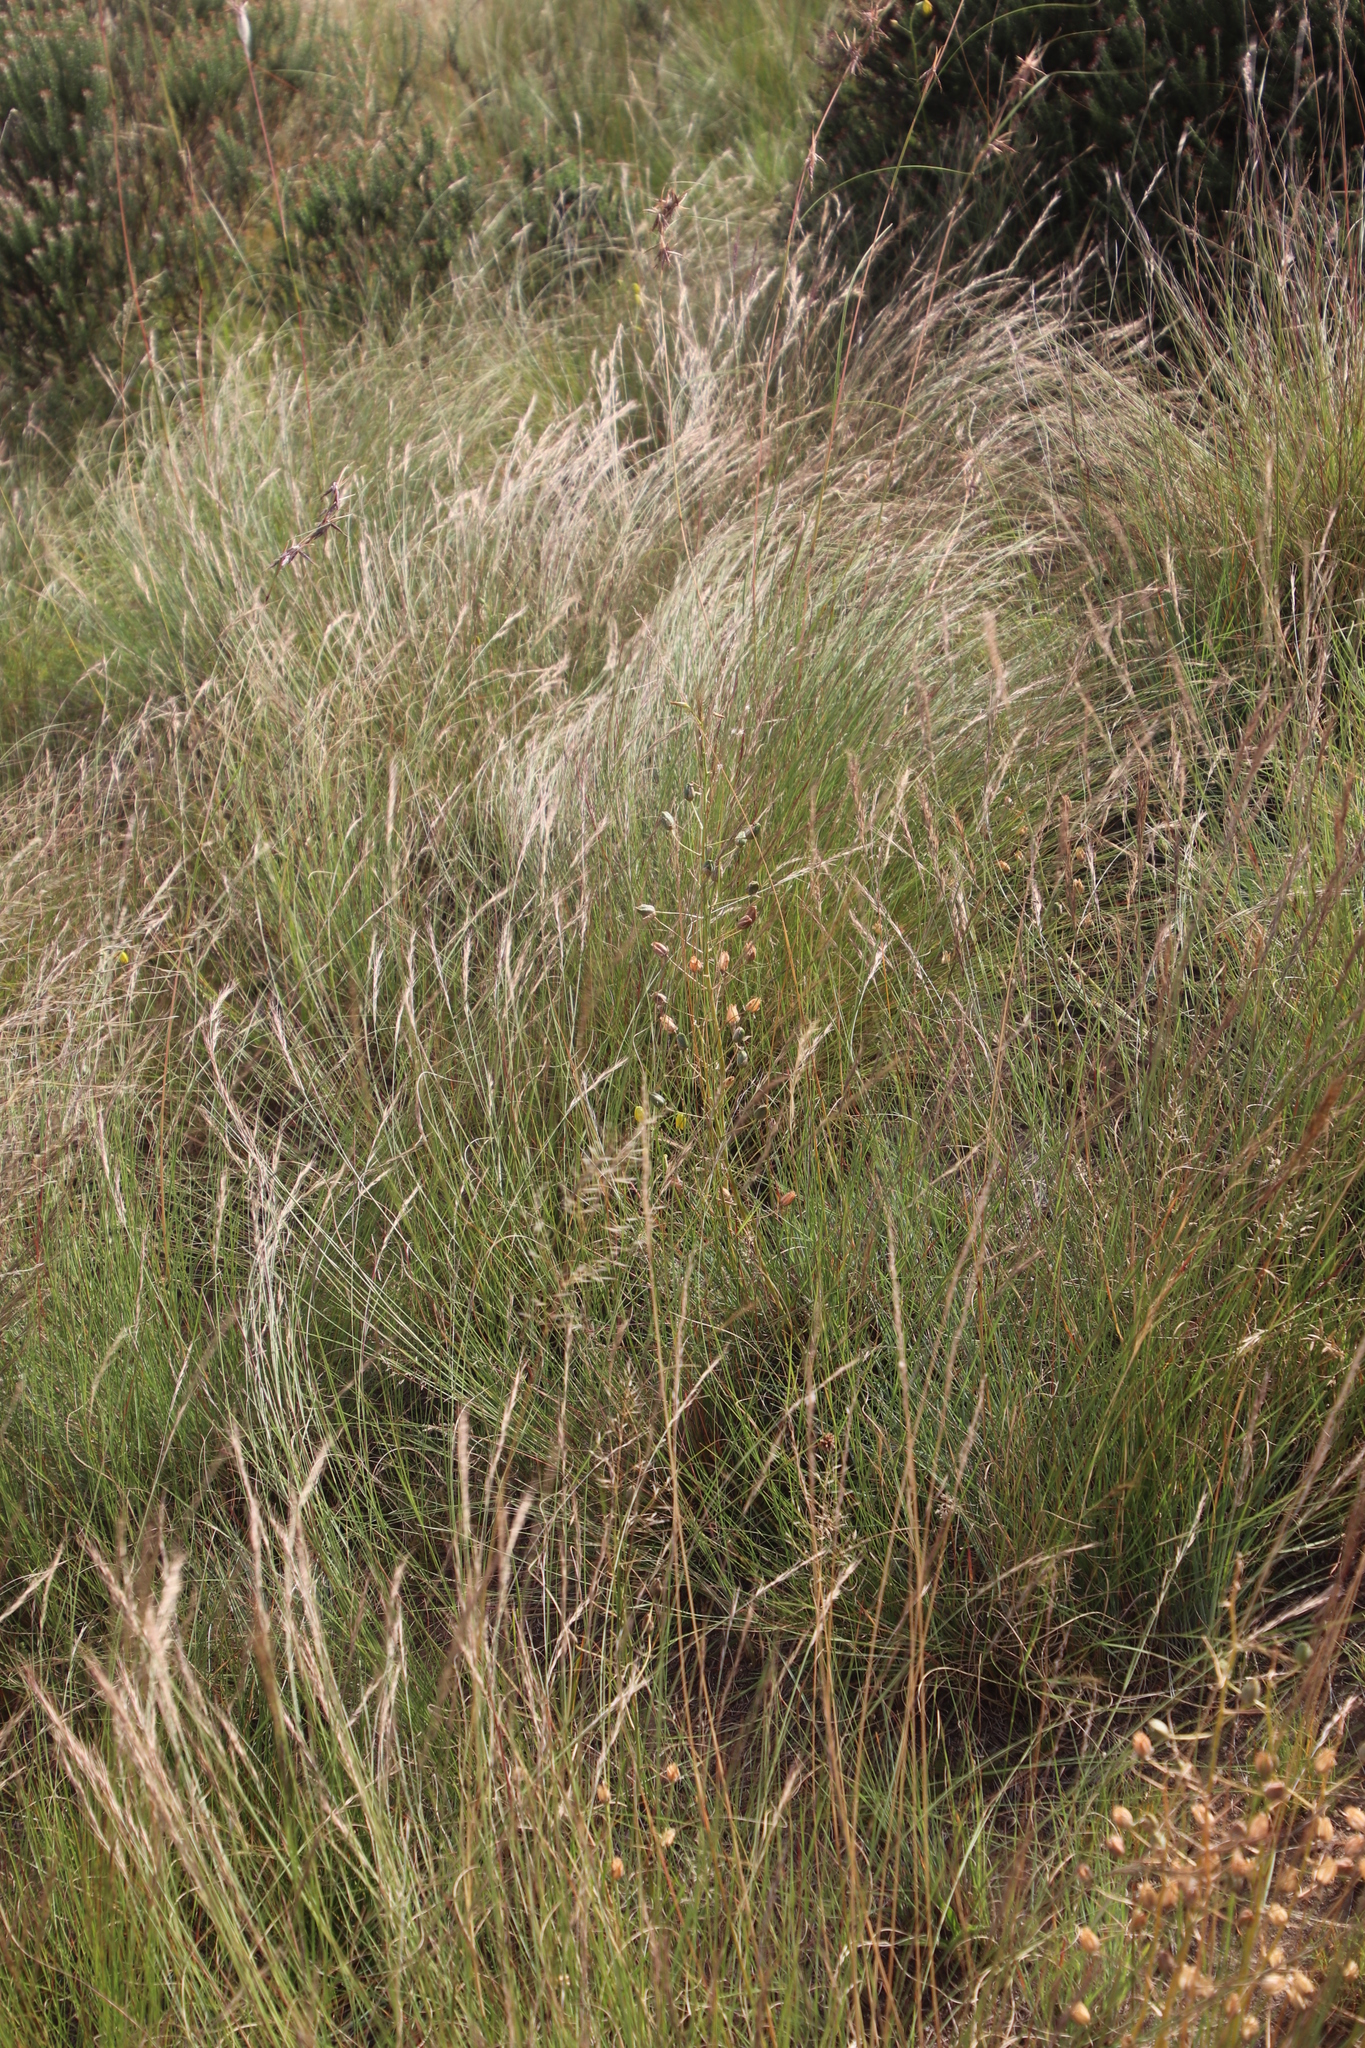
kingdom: Plantae
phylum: Tracheophyta
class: Liliopsida
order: Asparagales
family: Asparagaceae
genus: Albuca
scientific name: Albuca shawii
